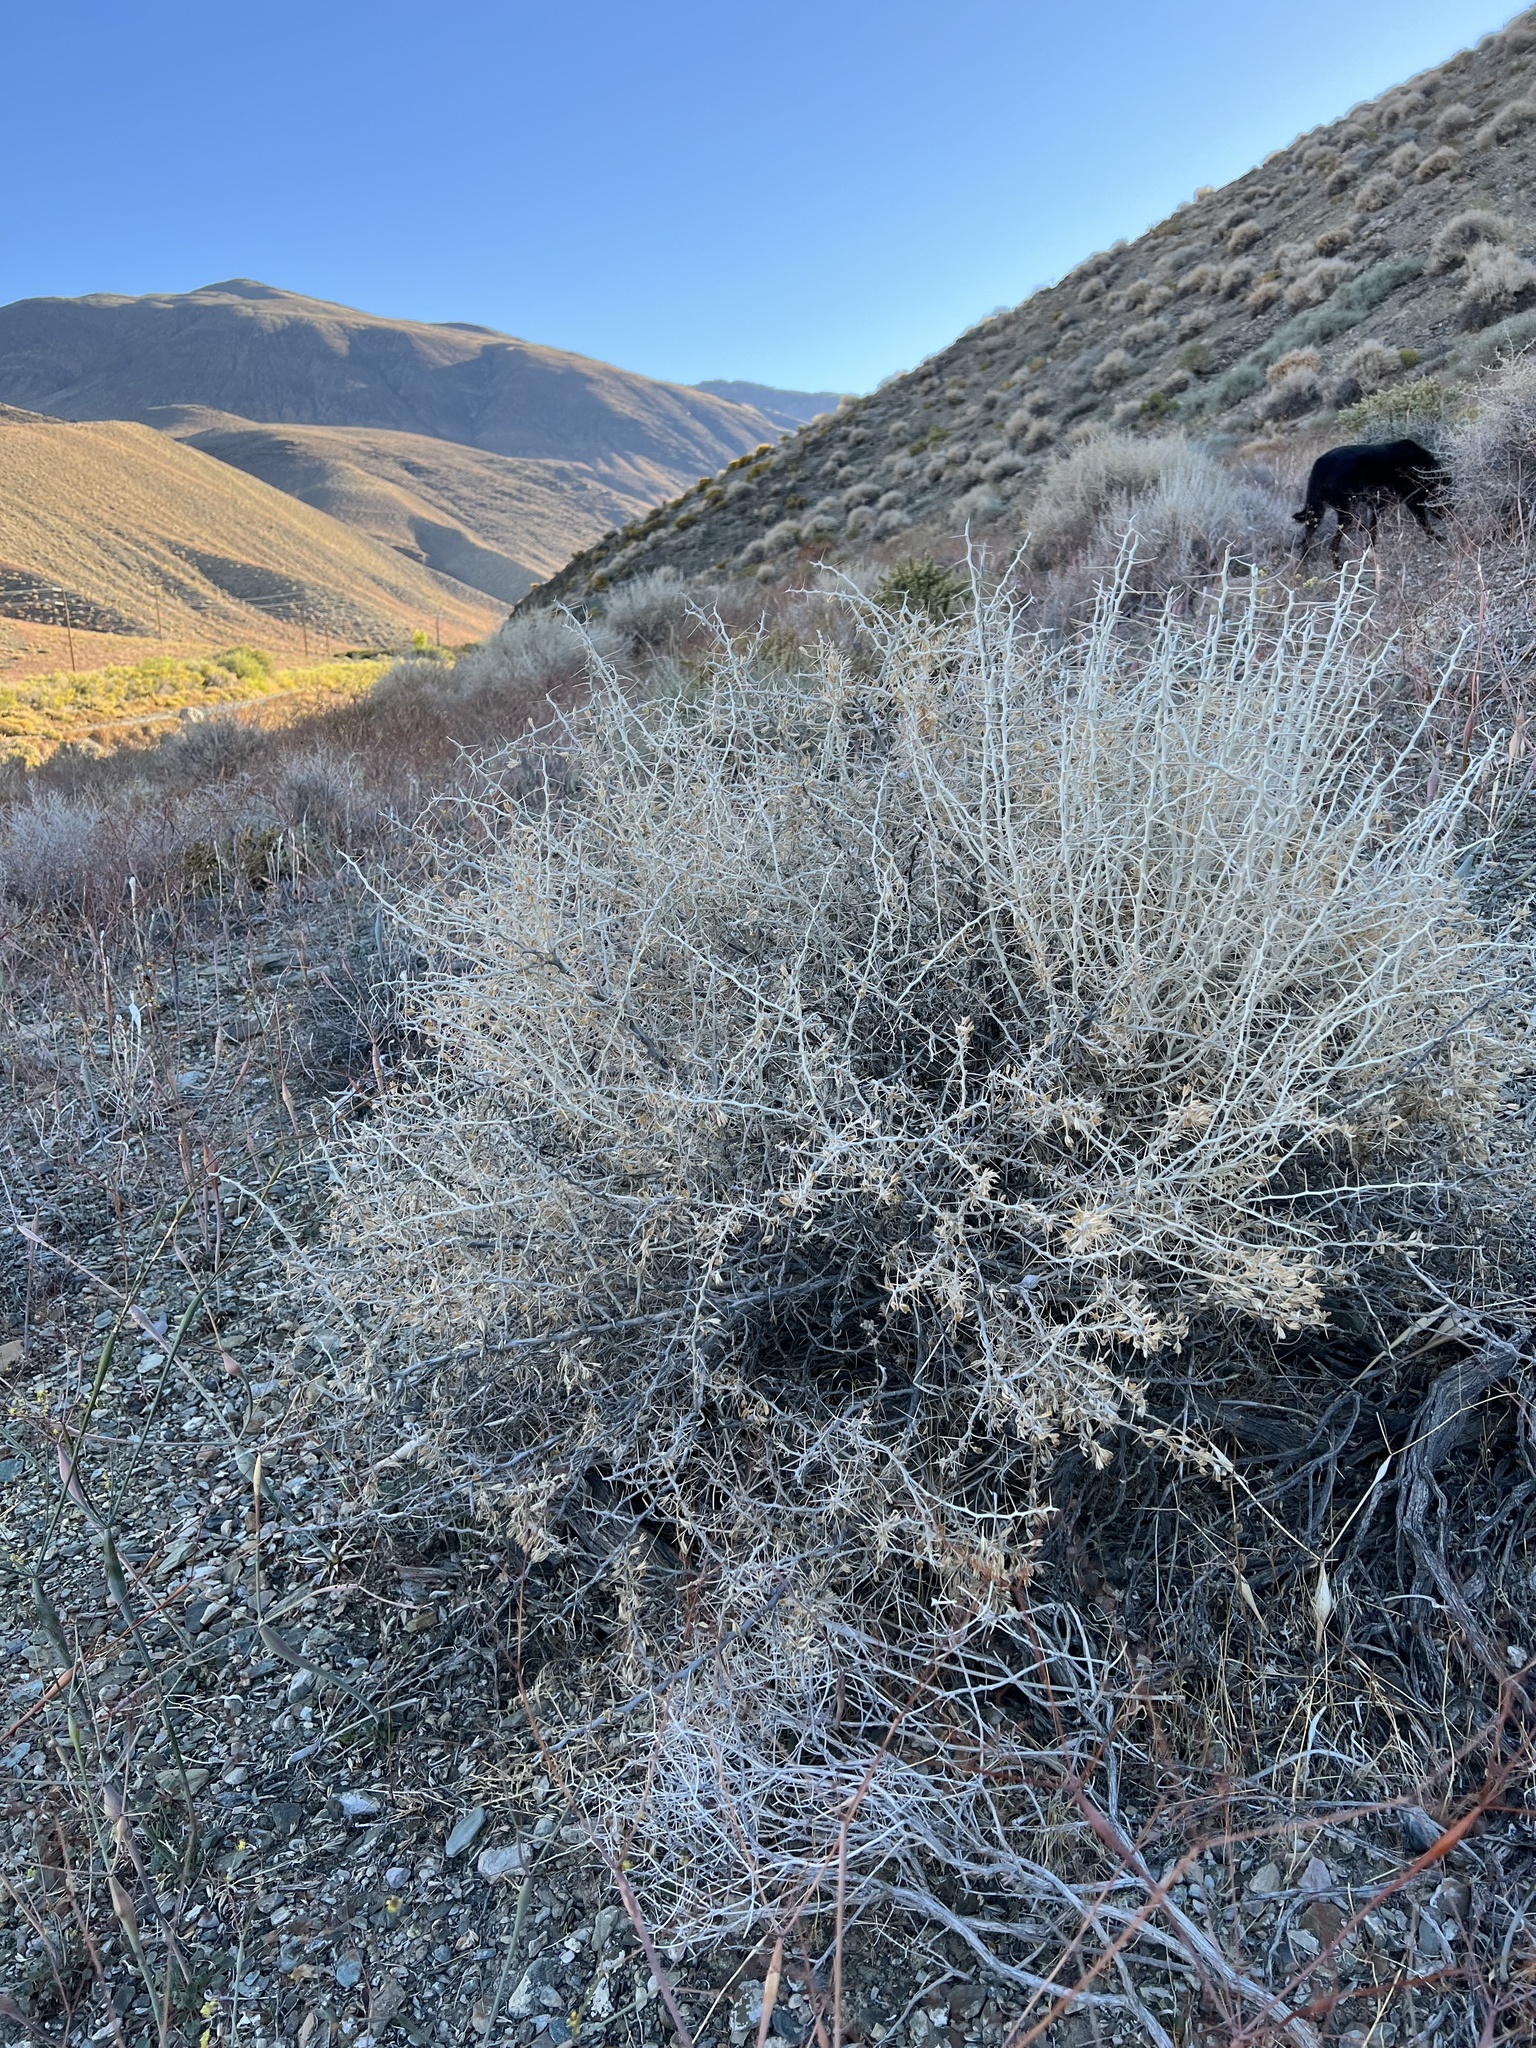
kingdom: Plantae
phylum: Tracheophyta
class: Magnoliopsida
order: Asterales
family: Asteraceae
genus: Tetradymia
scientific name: Tetradymia axillaris
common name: Long-spine horsebrush
